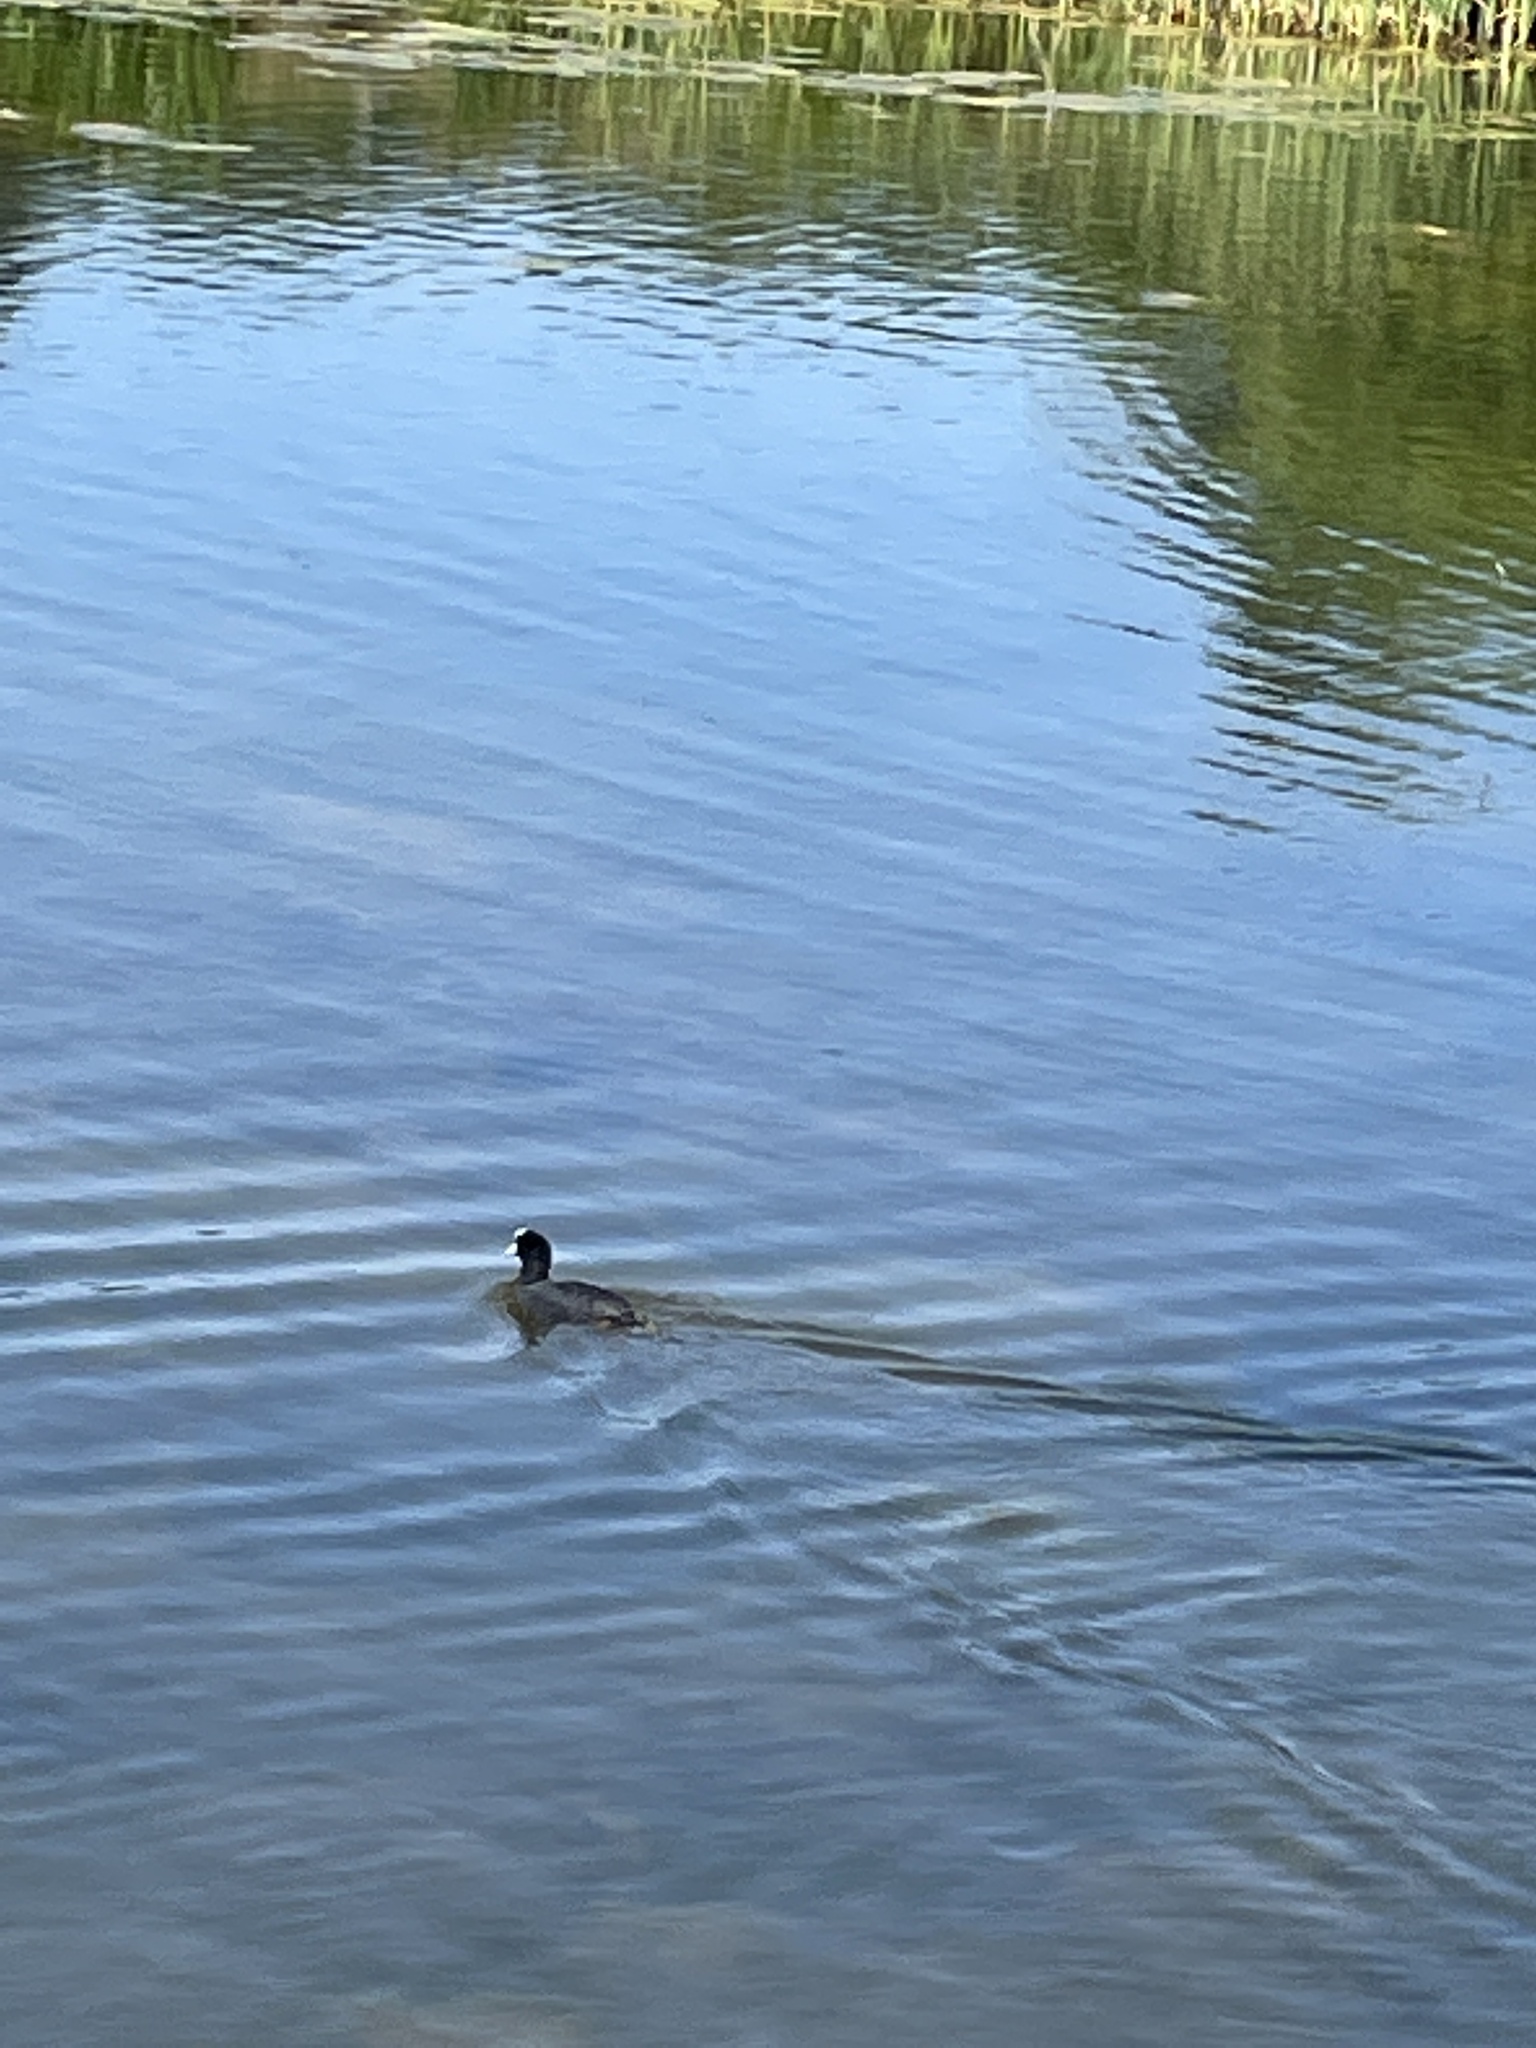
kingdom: Animalia
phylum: Chordata
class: Aves
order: Gruiformes
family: Rallidae
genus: Fulica
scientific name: Fulica atra
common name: Eurasian coot
